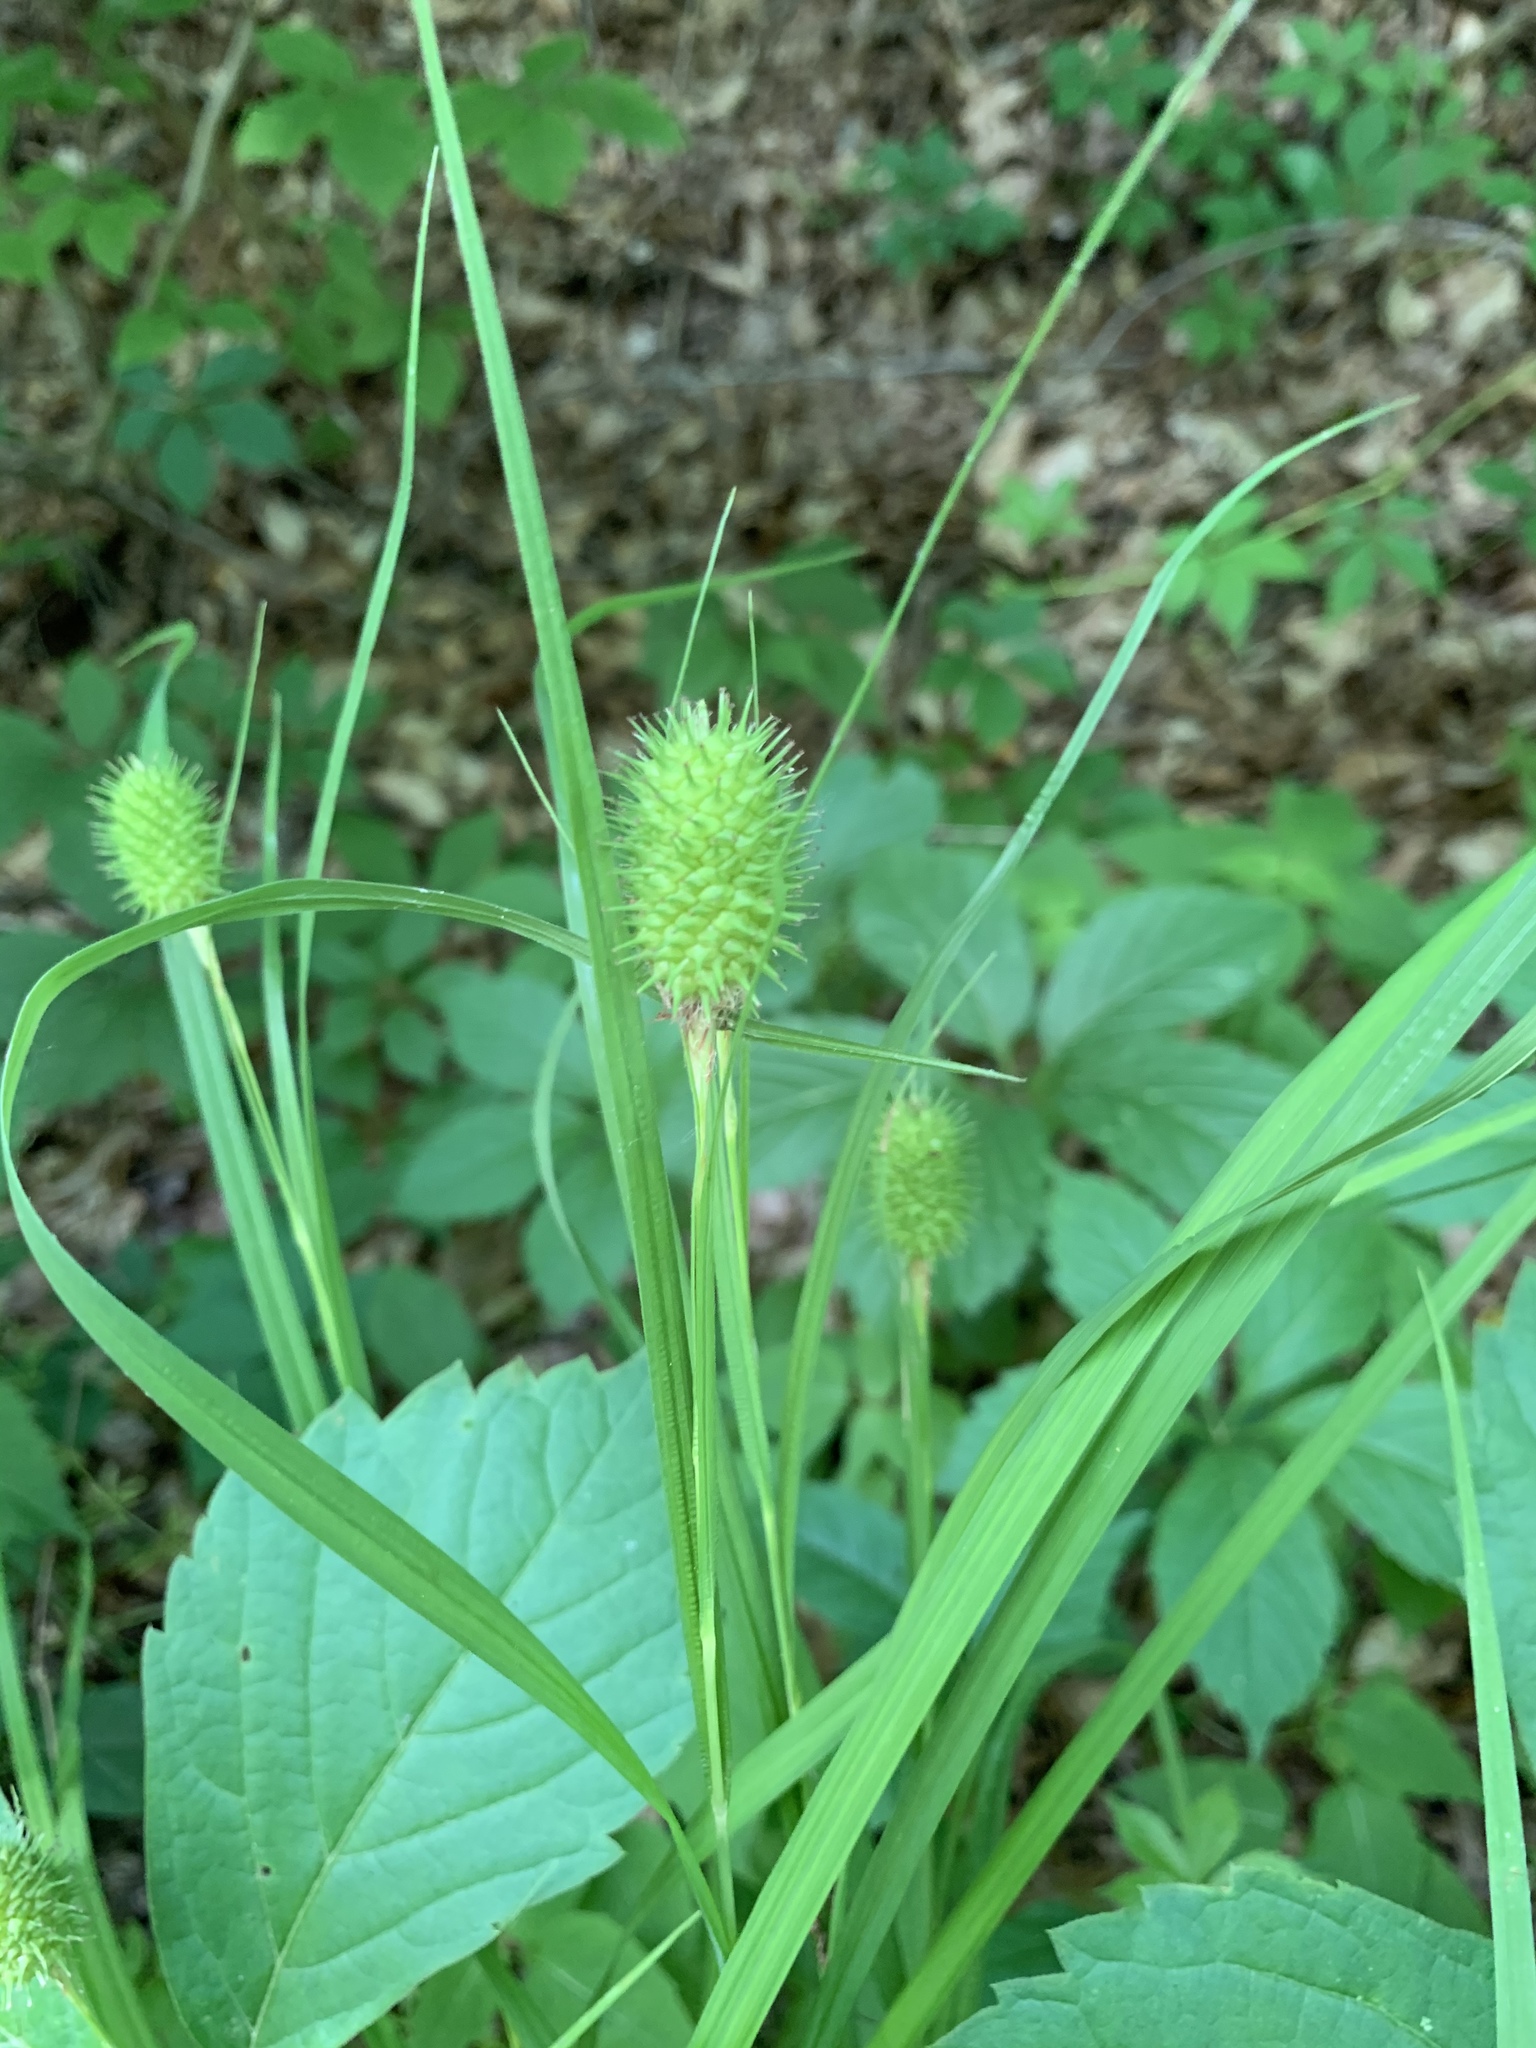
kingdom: Plantae
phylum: Tracheophyta
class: Liliopsida
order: Poales
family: Cyperaceae
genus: Carex
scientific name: Carex squarrosa
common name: Narrow-leaved cattail sedge
